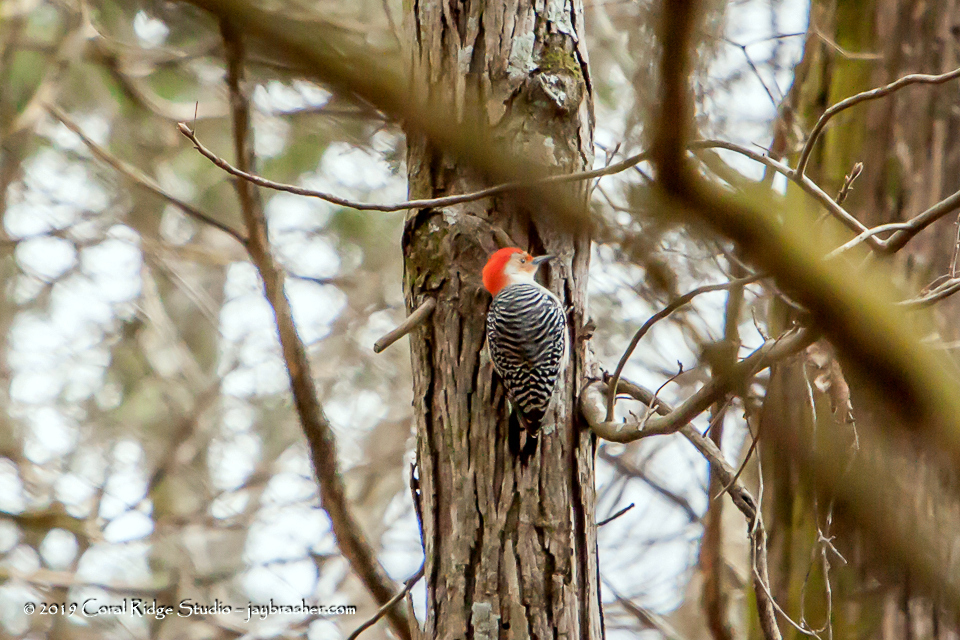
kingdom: Animalia
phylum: Chordata
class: Aves
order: Piciformes
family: Picidae
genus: Melanerpes
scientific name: Melanerpes carolinus
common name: Red-bellied woodpecker
